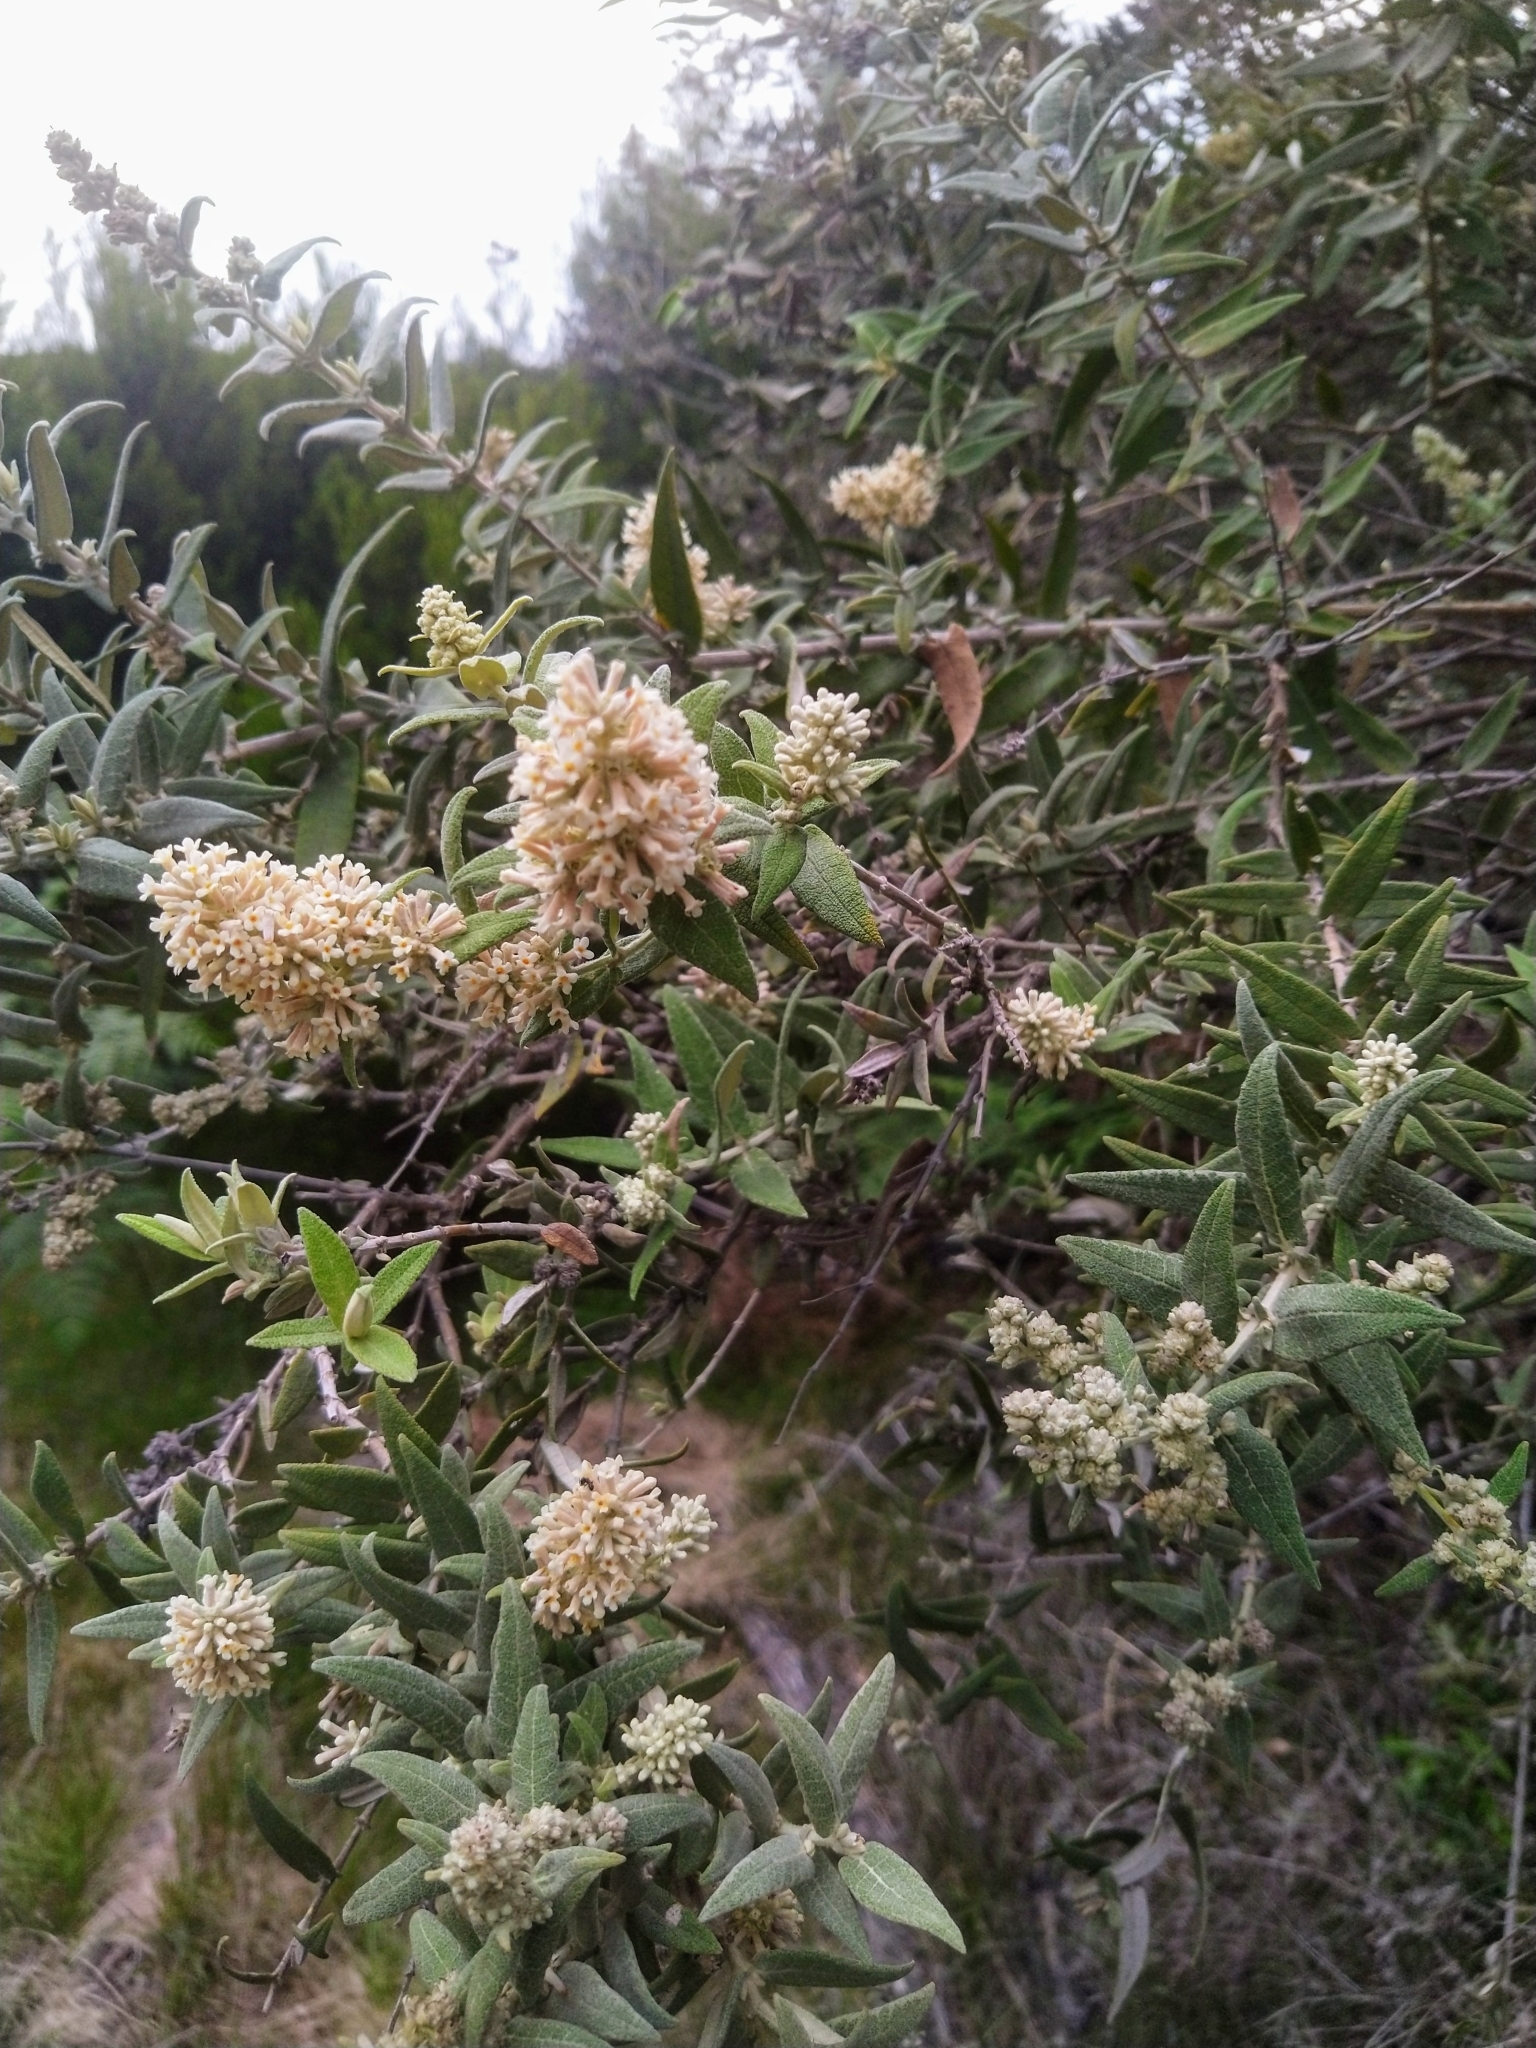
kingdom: Plantae
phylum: Tracheophyta
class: Magnoliopsida
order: Lamiales
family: Scrophulariaceae
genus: Buddleja
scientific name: Buddleja salviifolia
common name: Sagewood
